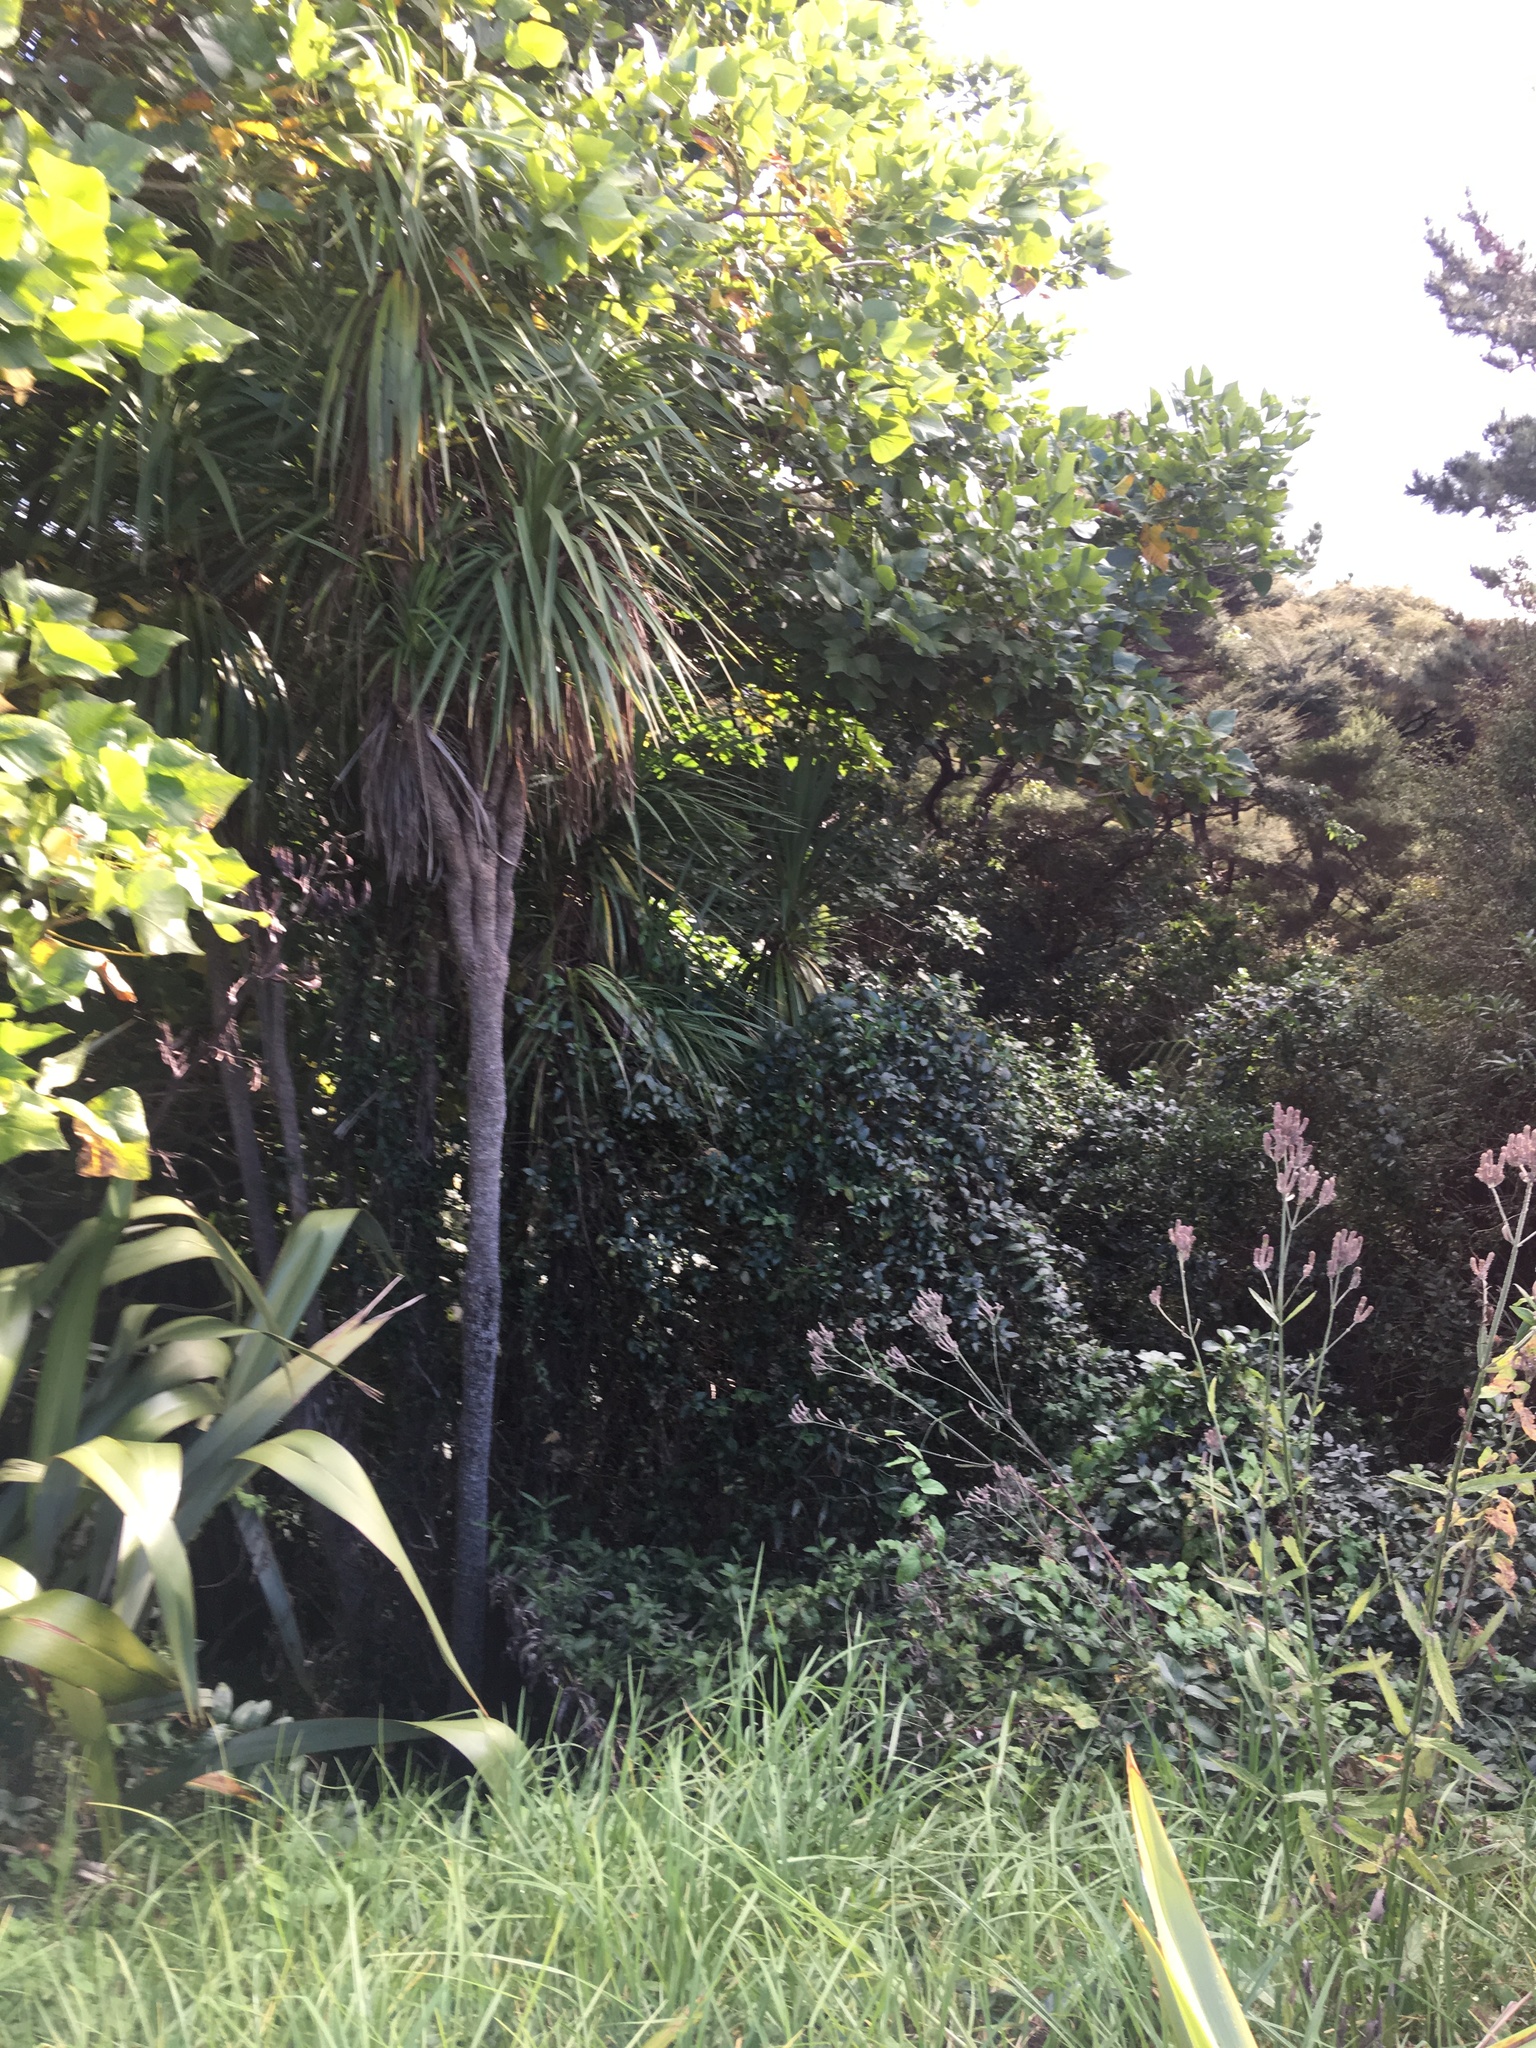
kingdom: Plantae
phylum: Tracheophyta
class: Liliopsida
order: Asparagales
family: Asparagaceae
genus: Cordyline
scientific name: Cordyline australis
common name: Cabbage-palm
